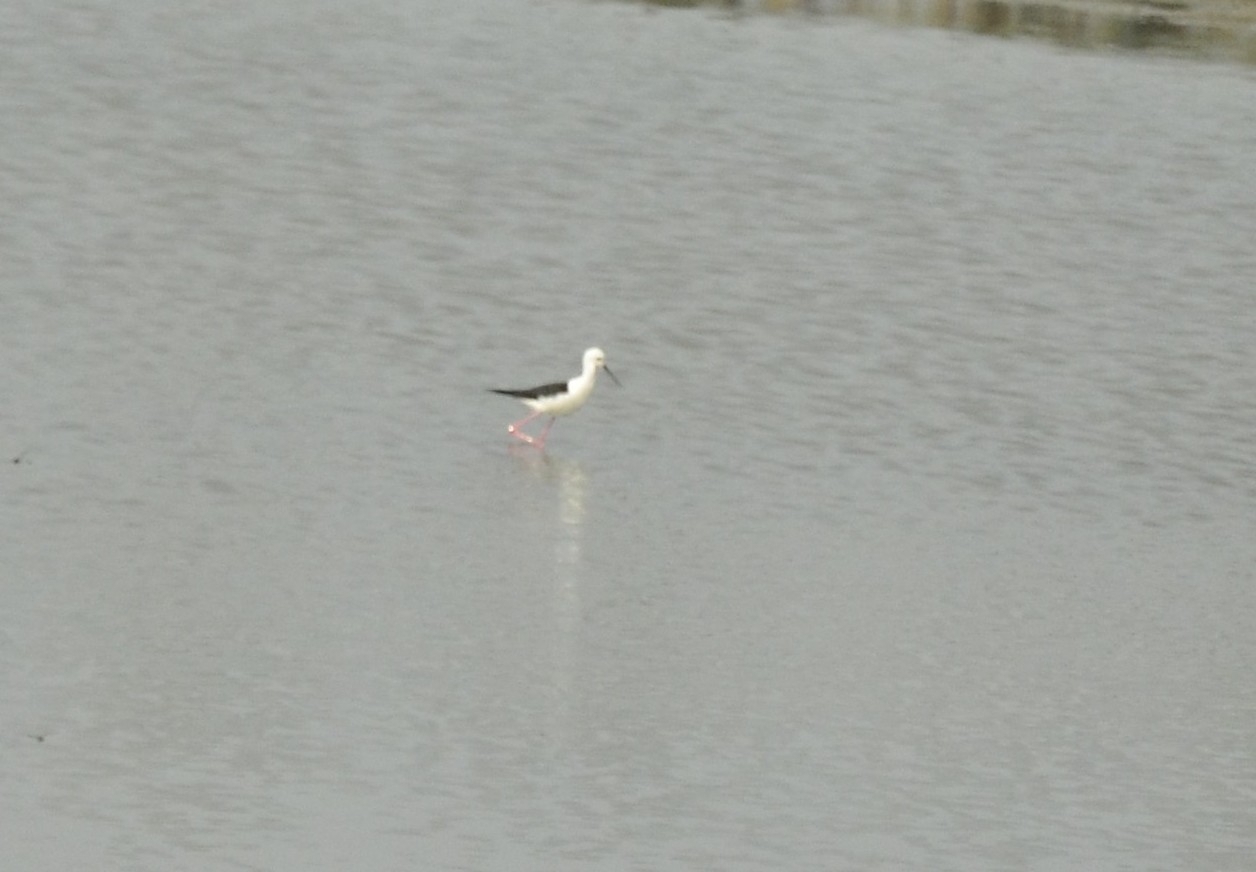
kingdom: Animalia
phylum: Chordata
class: Aves
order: Charadriiformes
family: Recurvirostridae
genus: Himantopus
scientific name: Himantopus himantopus
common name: Black-winged stilt
